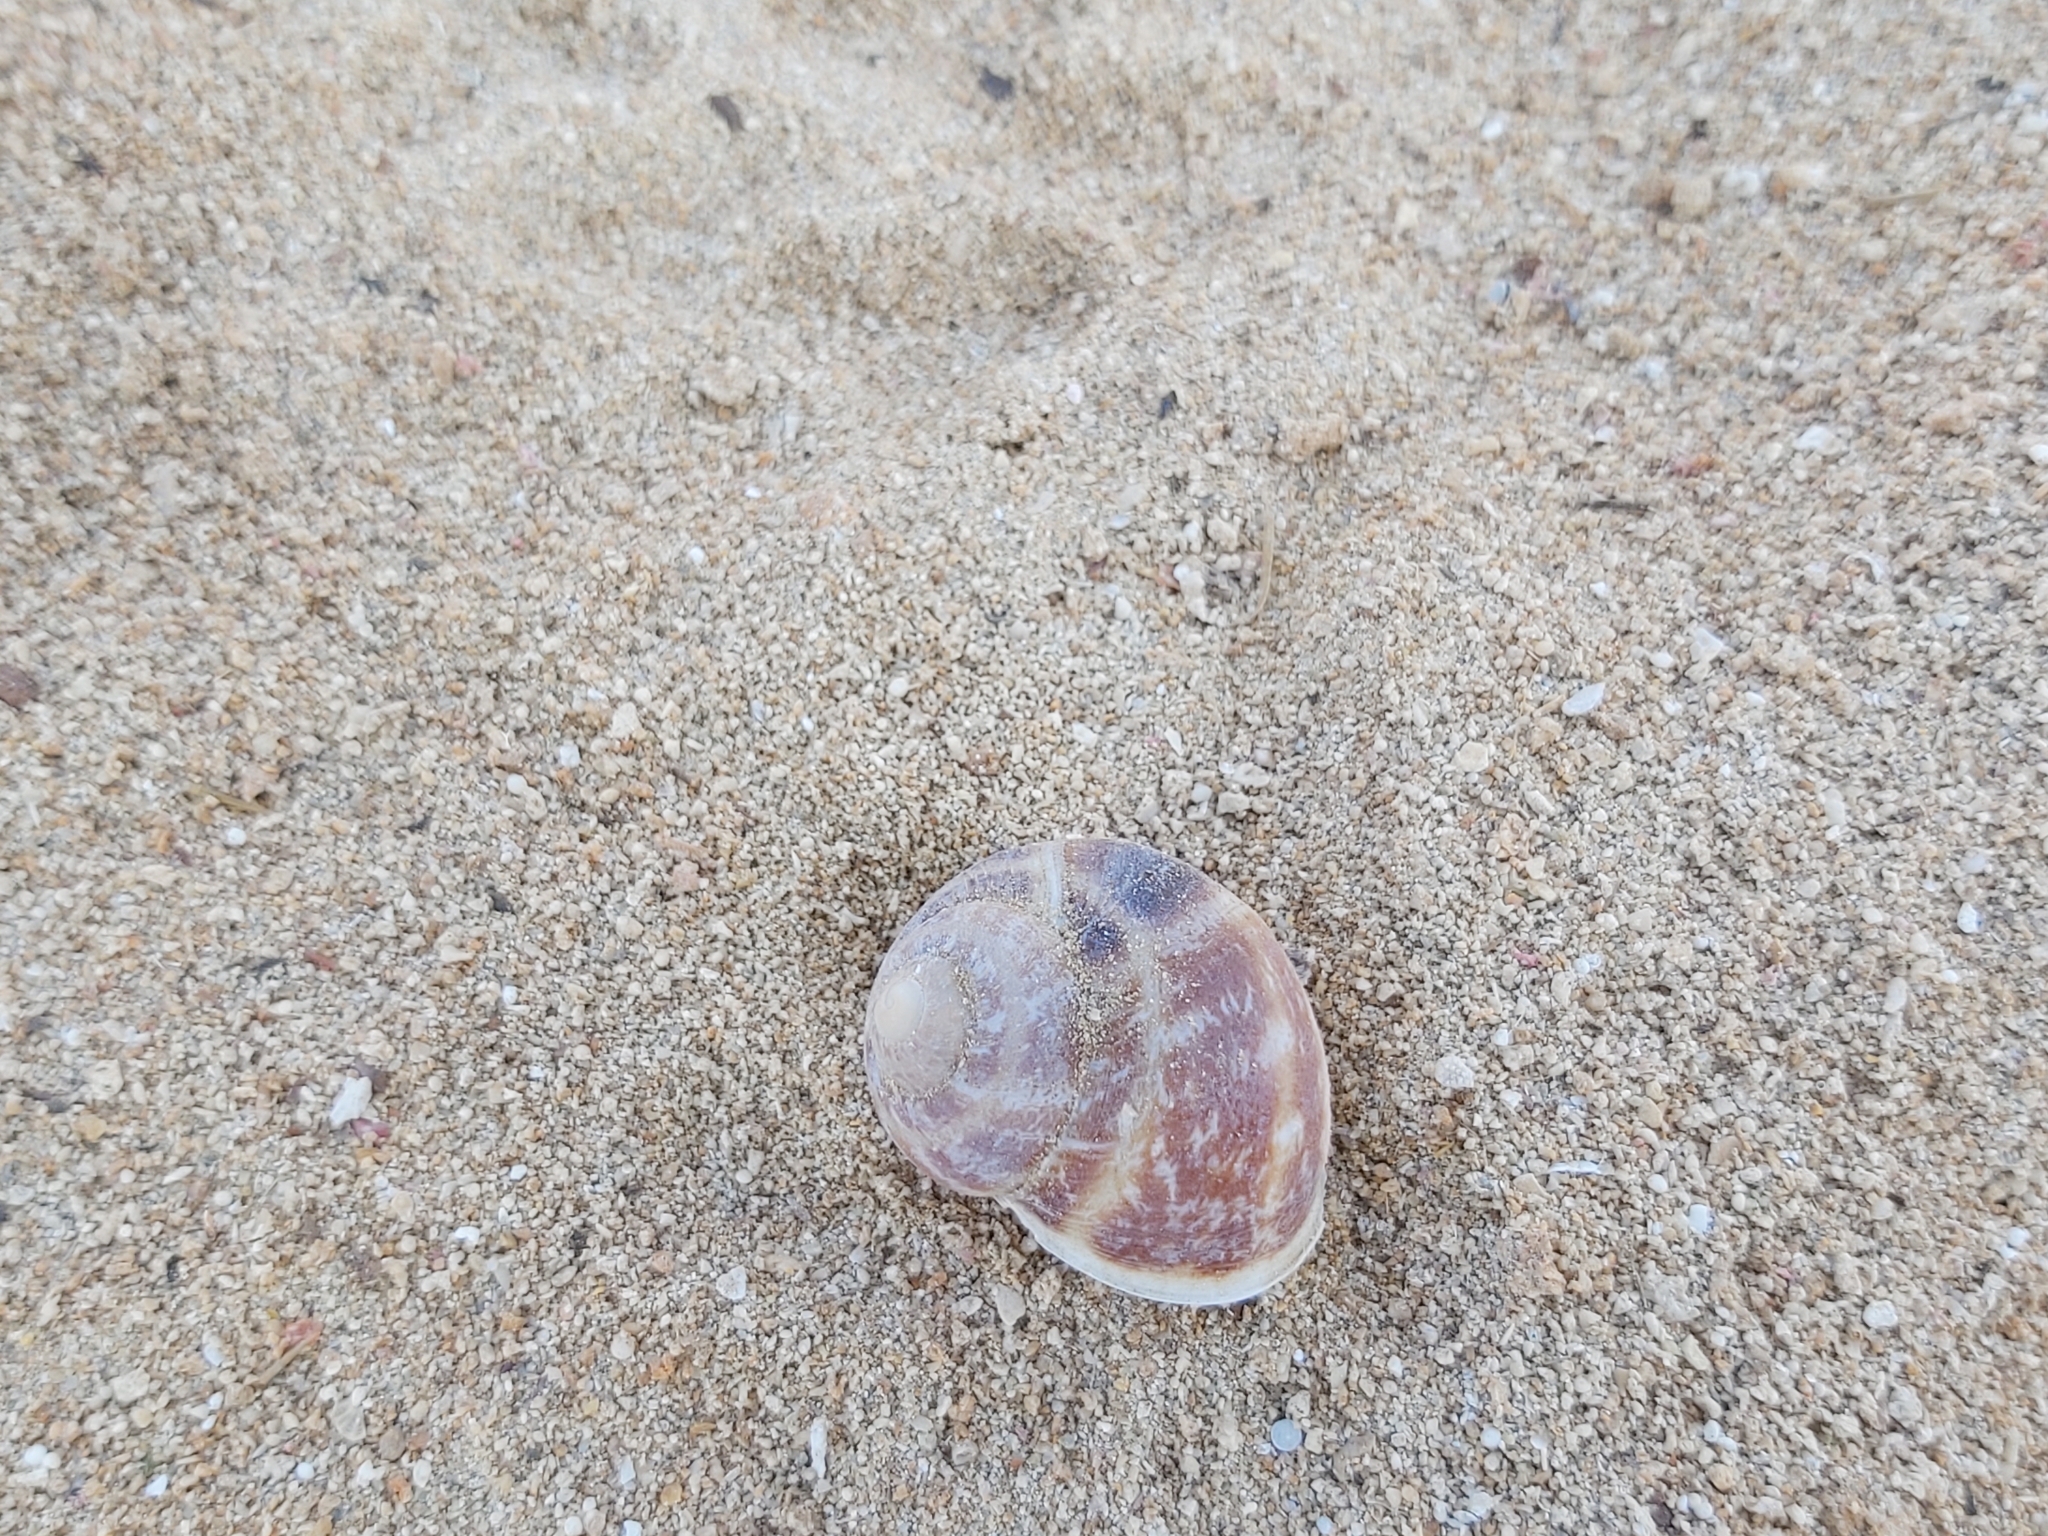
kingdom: Animalia
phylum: Mollusca
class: Gastropoda
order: Stylommatophora
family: Helicidae
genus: Cornu
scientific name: Cornu aspersum
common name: Brown garden snail
